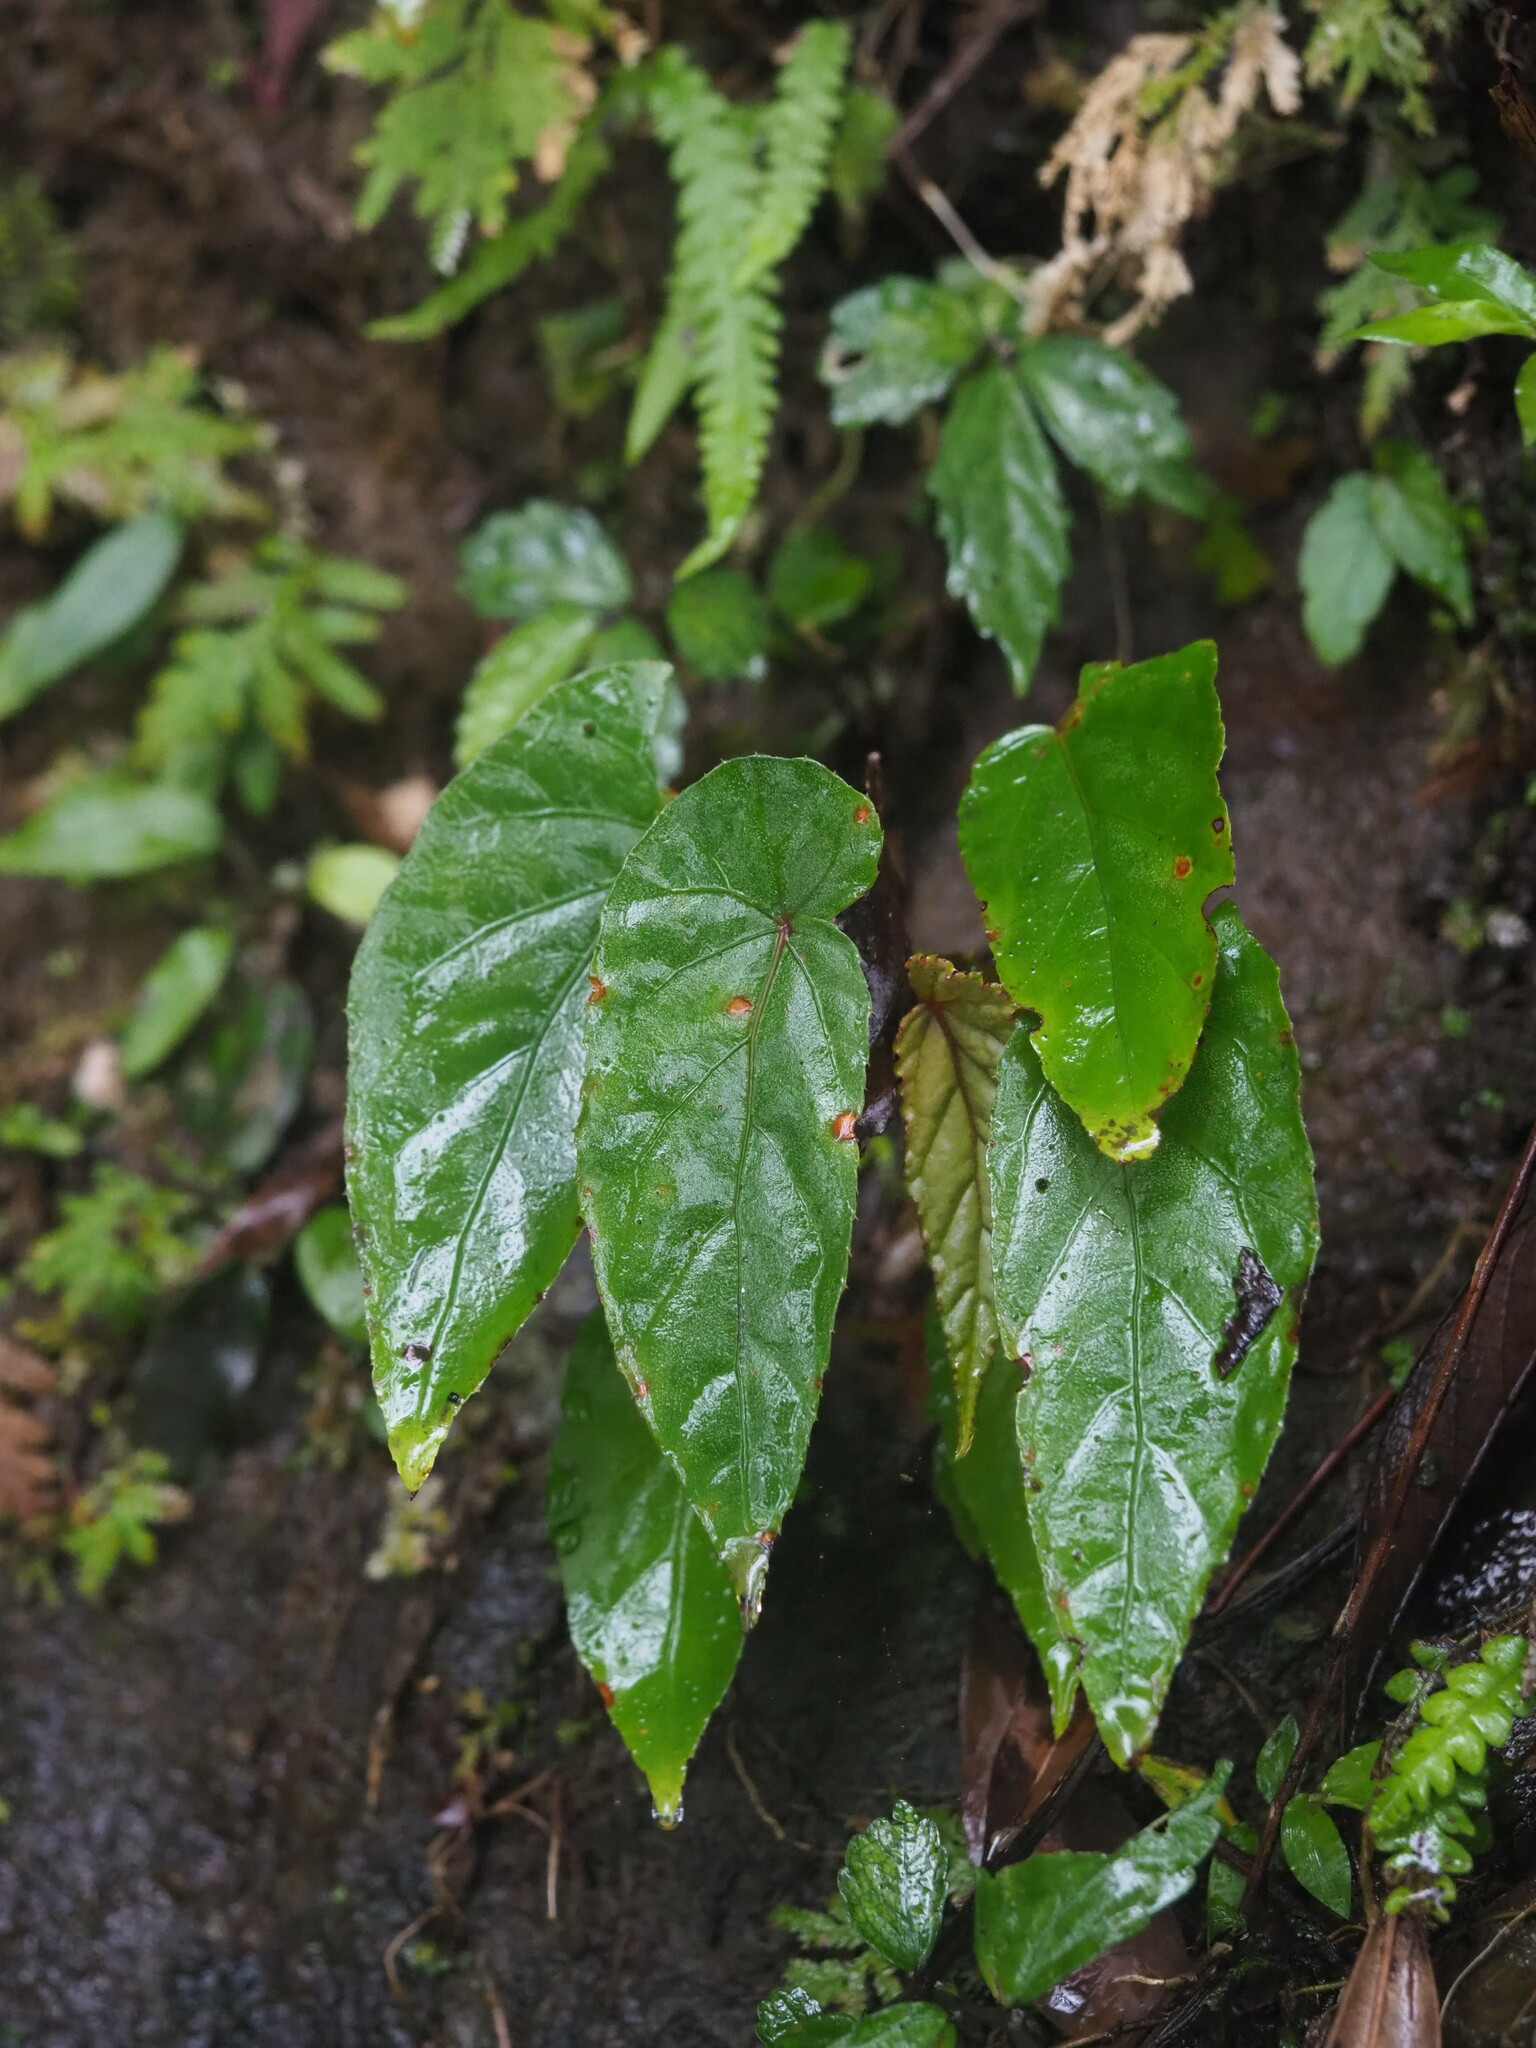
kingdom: Plantae
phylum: Tracheophyta
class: Magnoliopsida
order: Cucurbitales
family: Begoniaceae
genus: Begonia
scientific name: Begonia longifolia
